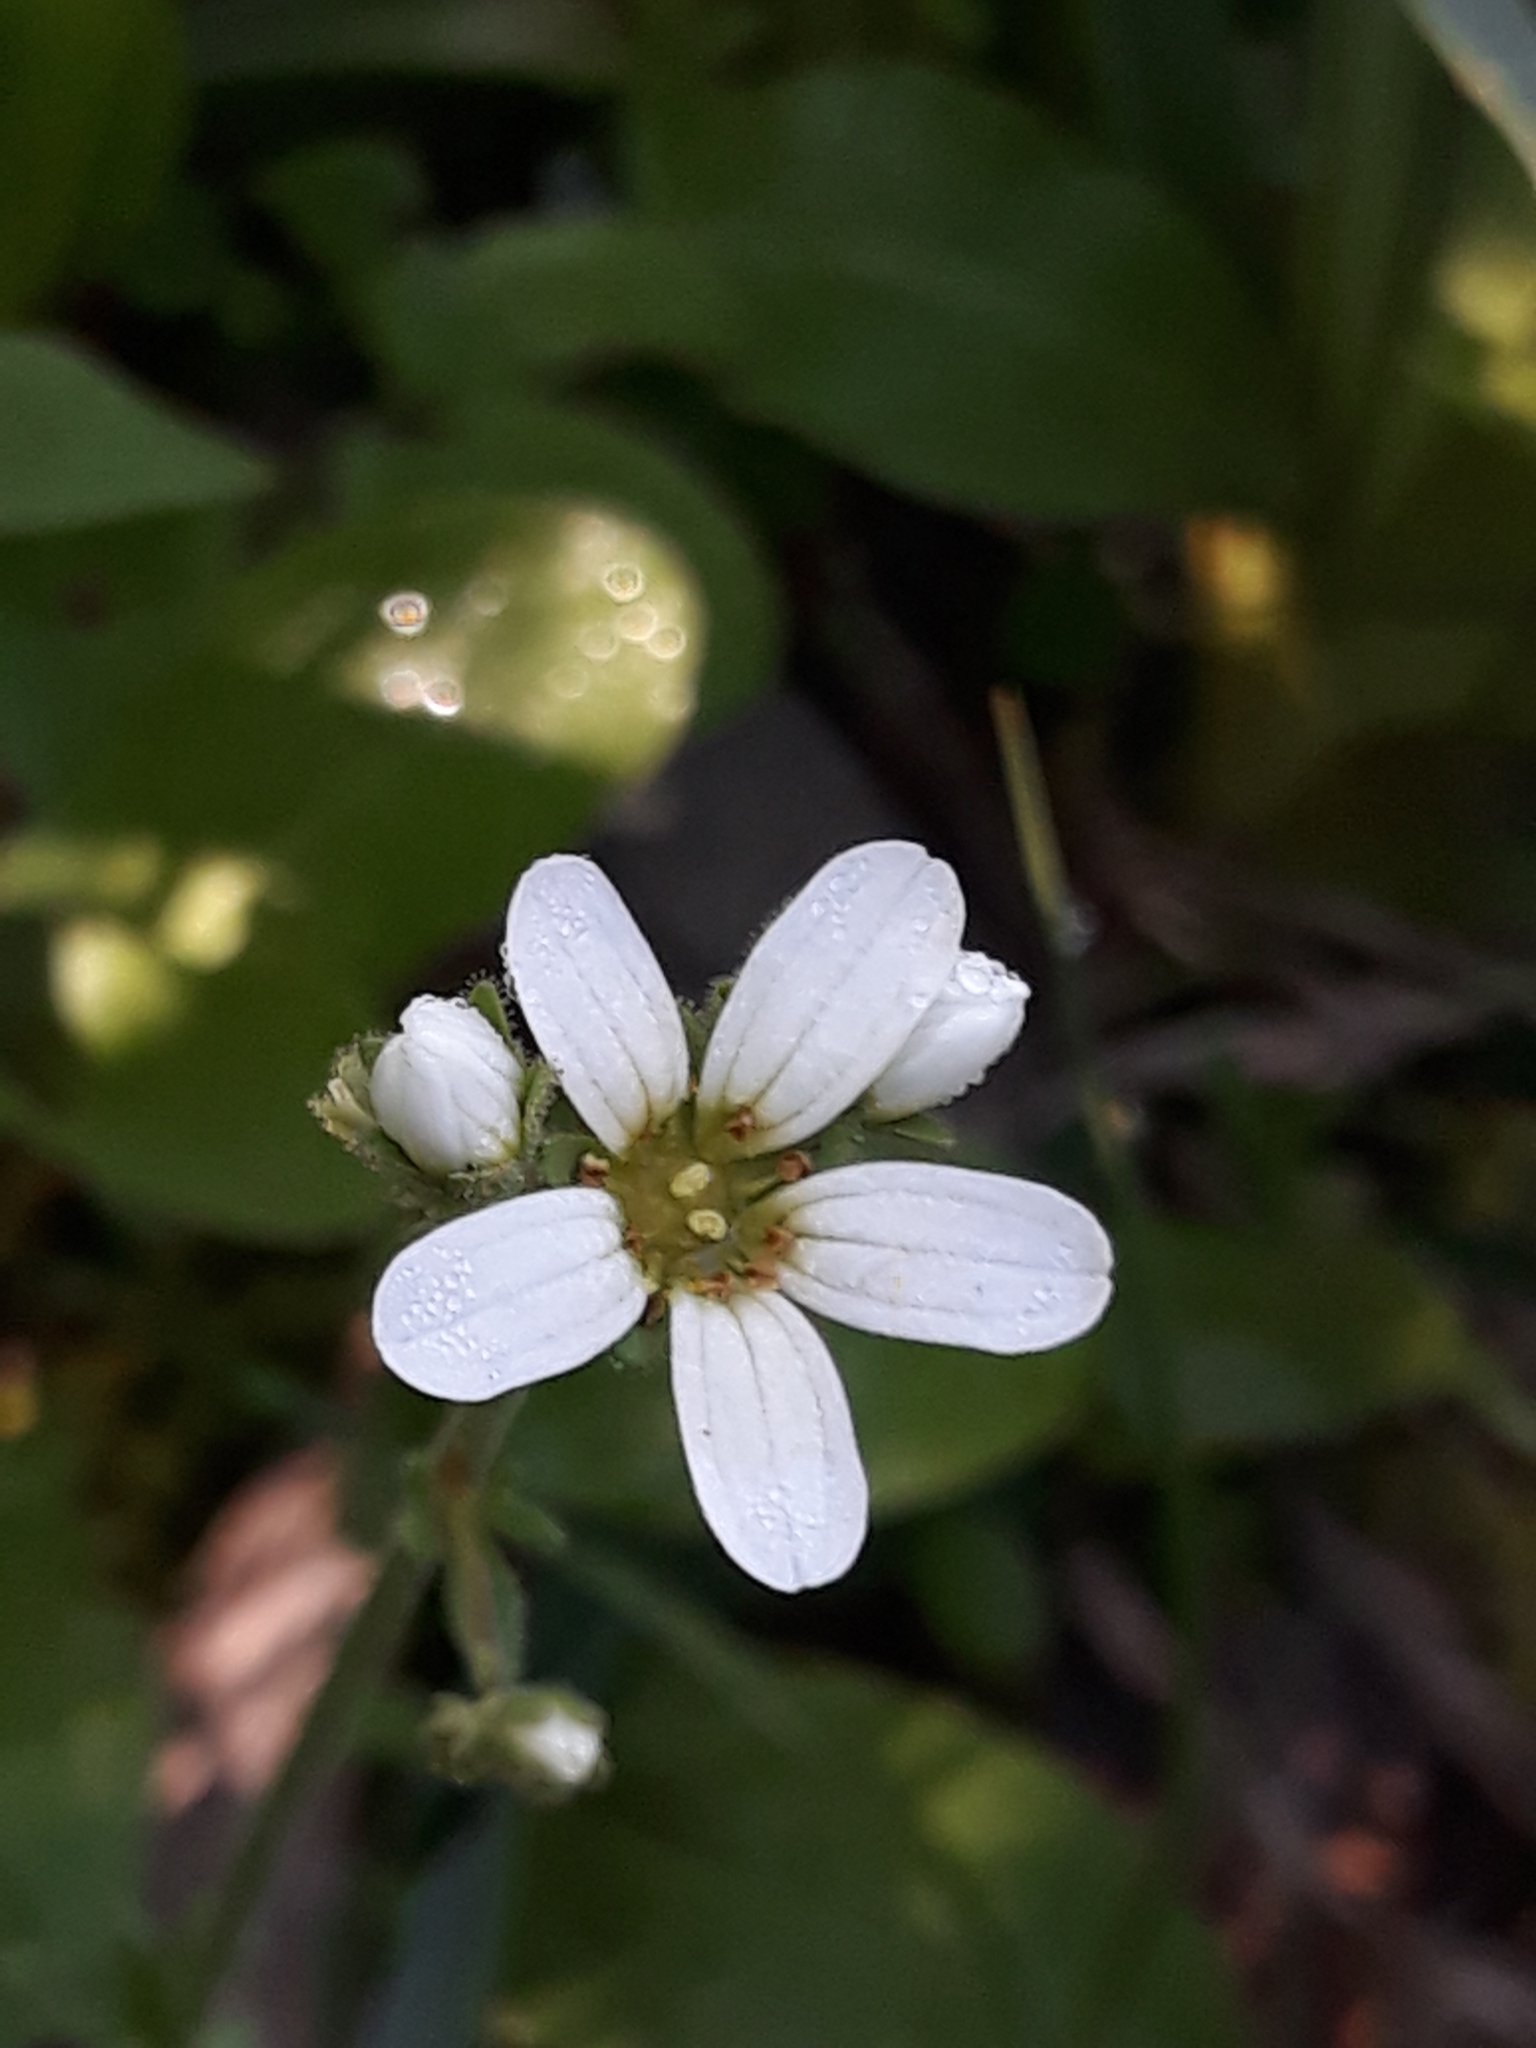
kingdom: Plantae
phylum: Tracheophyta
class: Magnoliopsida
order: Saxifragales
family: Saxifragaceae
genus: Saxifraga
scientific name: Saxifraga carpetana
